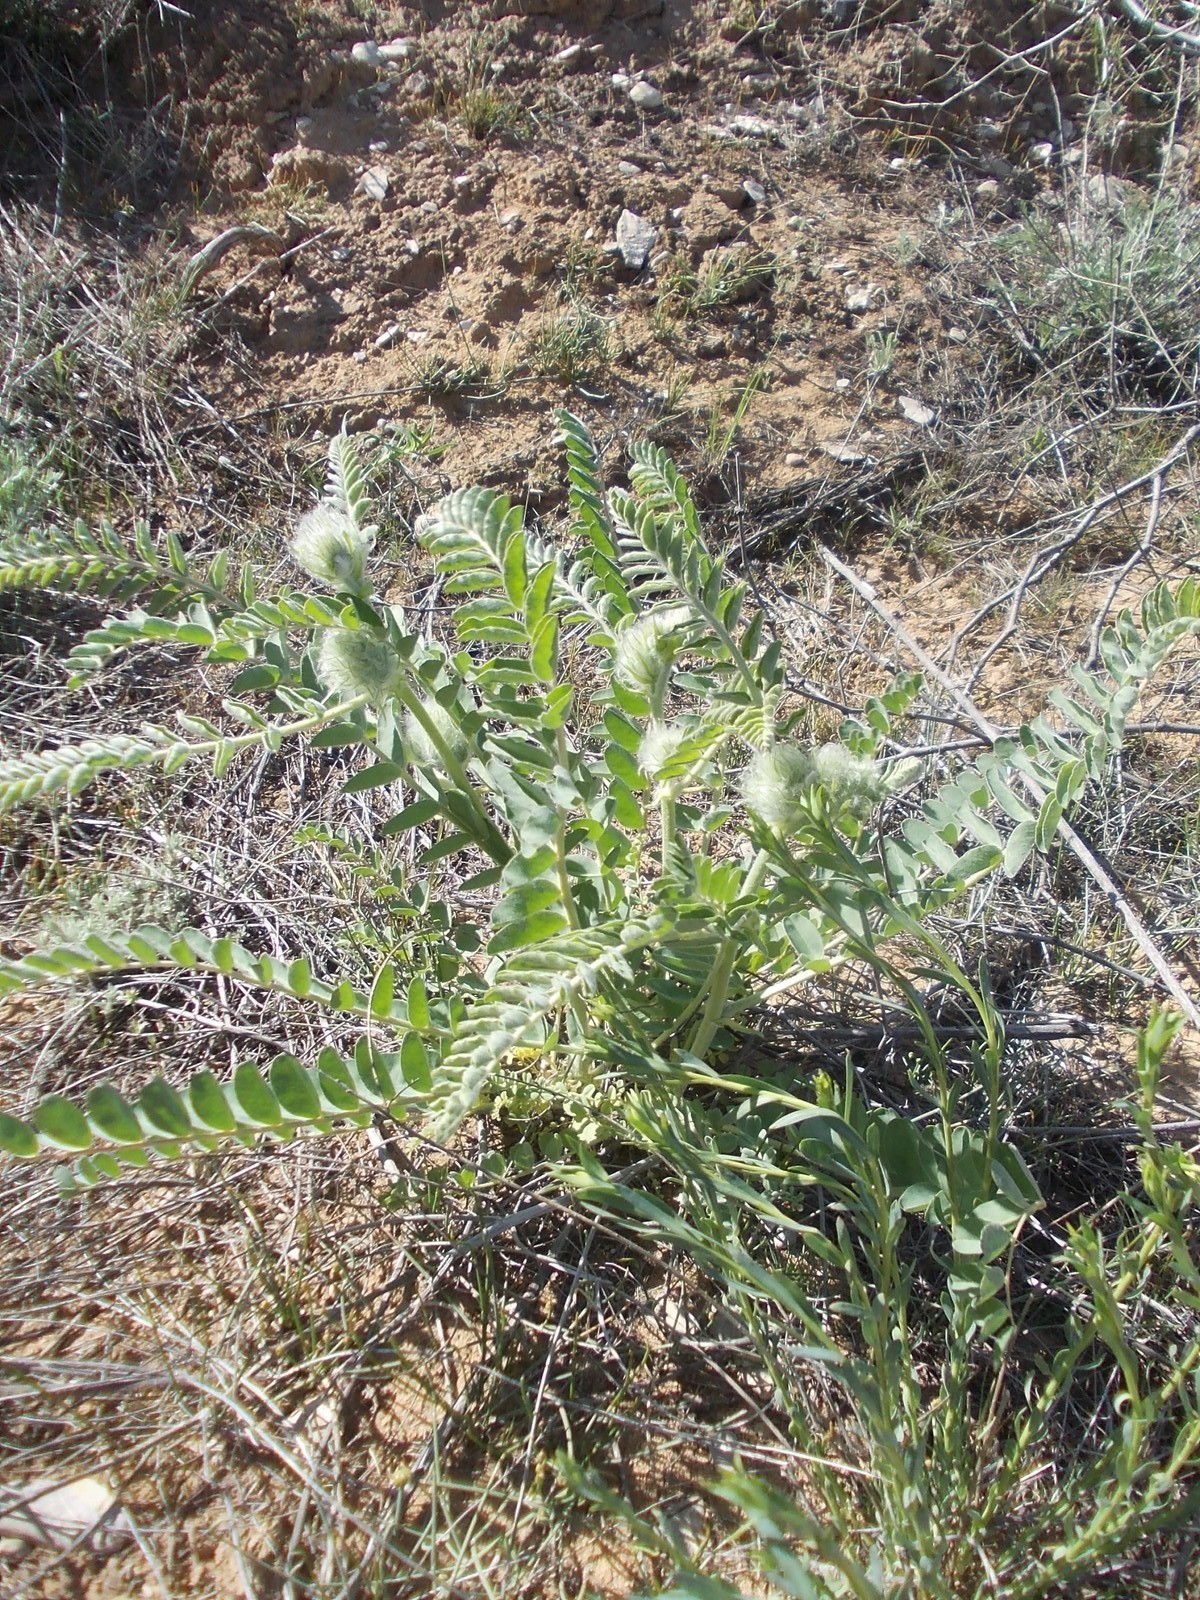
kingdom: Plantae
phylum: Tracheophyta
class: Magnoliopsida
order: Fabales
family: Fabaceae
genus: Astragalus
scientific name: Astragalus vulpinus
